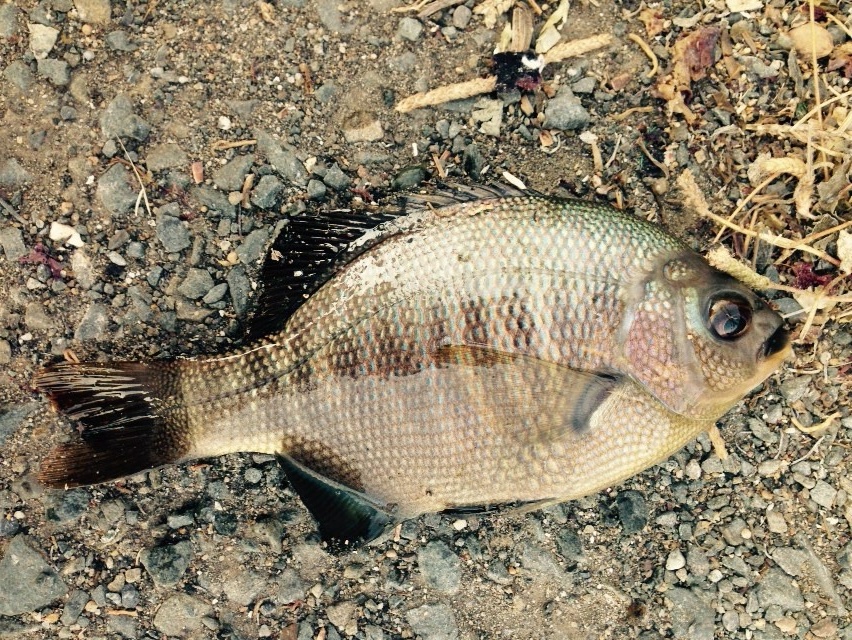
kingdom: Animalia
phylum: Chordata
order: Perciformes
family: Embiotocidae
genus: Embiotoca
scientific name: Embiotoca jacksoni
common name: Black perch
